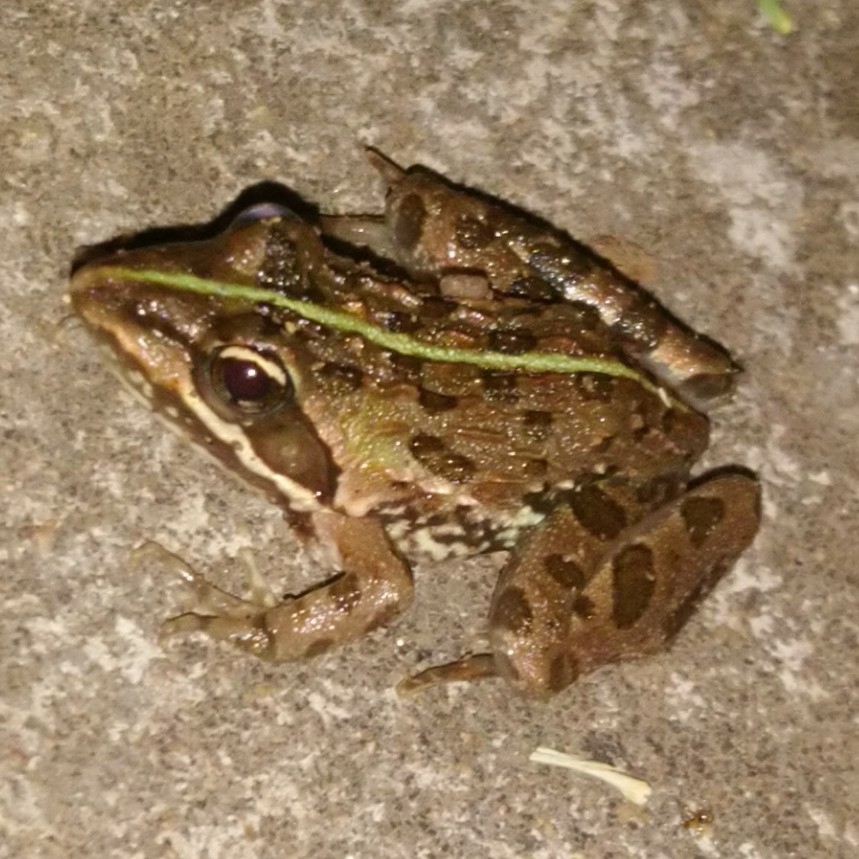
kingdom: Animalia
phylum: Chordata
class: Amphibia
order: Anura
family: Pyxicephalidae
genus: Amietia
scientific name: Amietia delalandii
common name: Delalande's river frog
